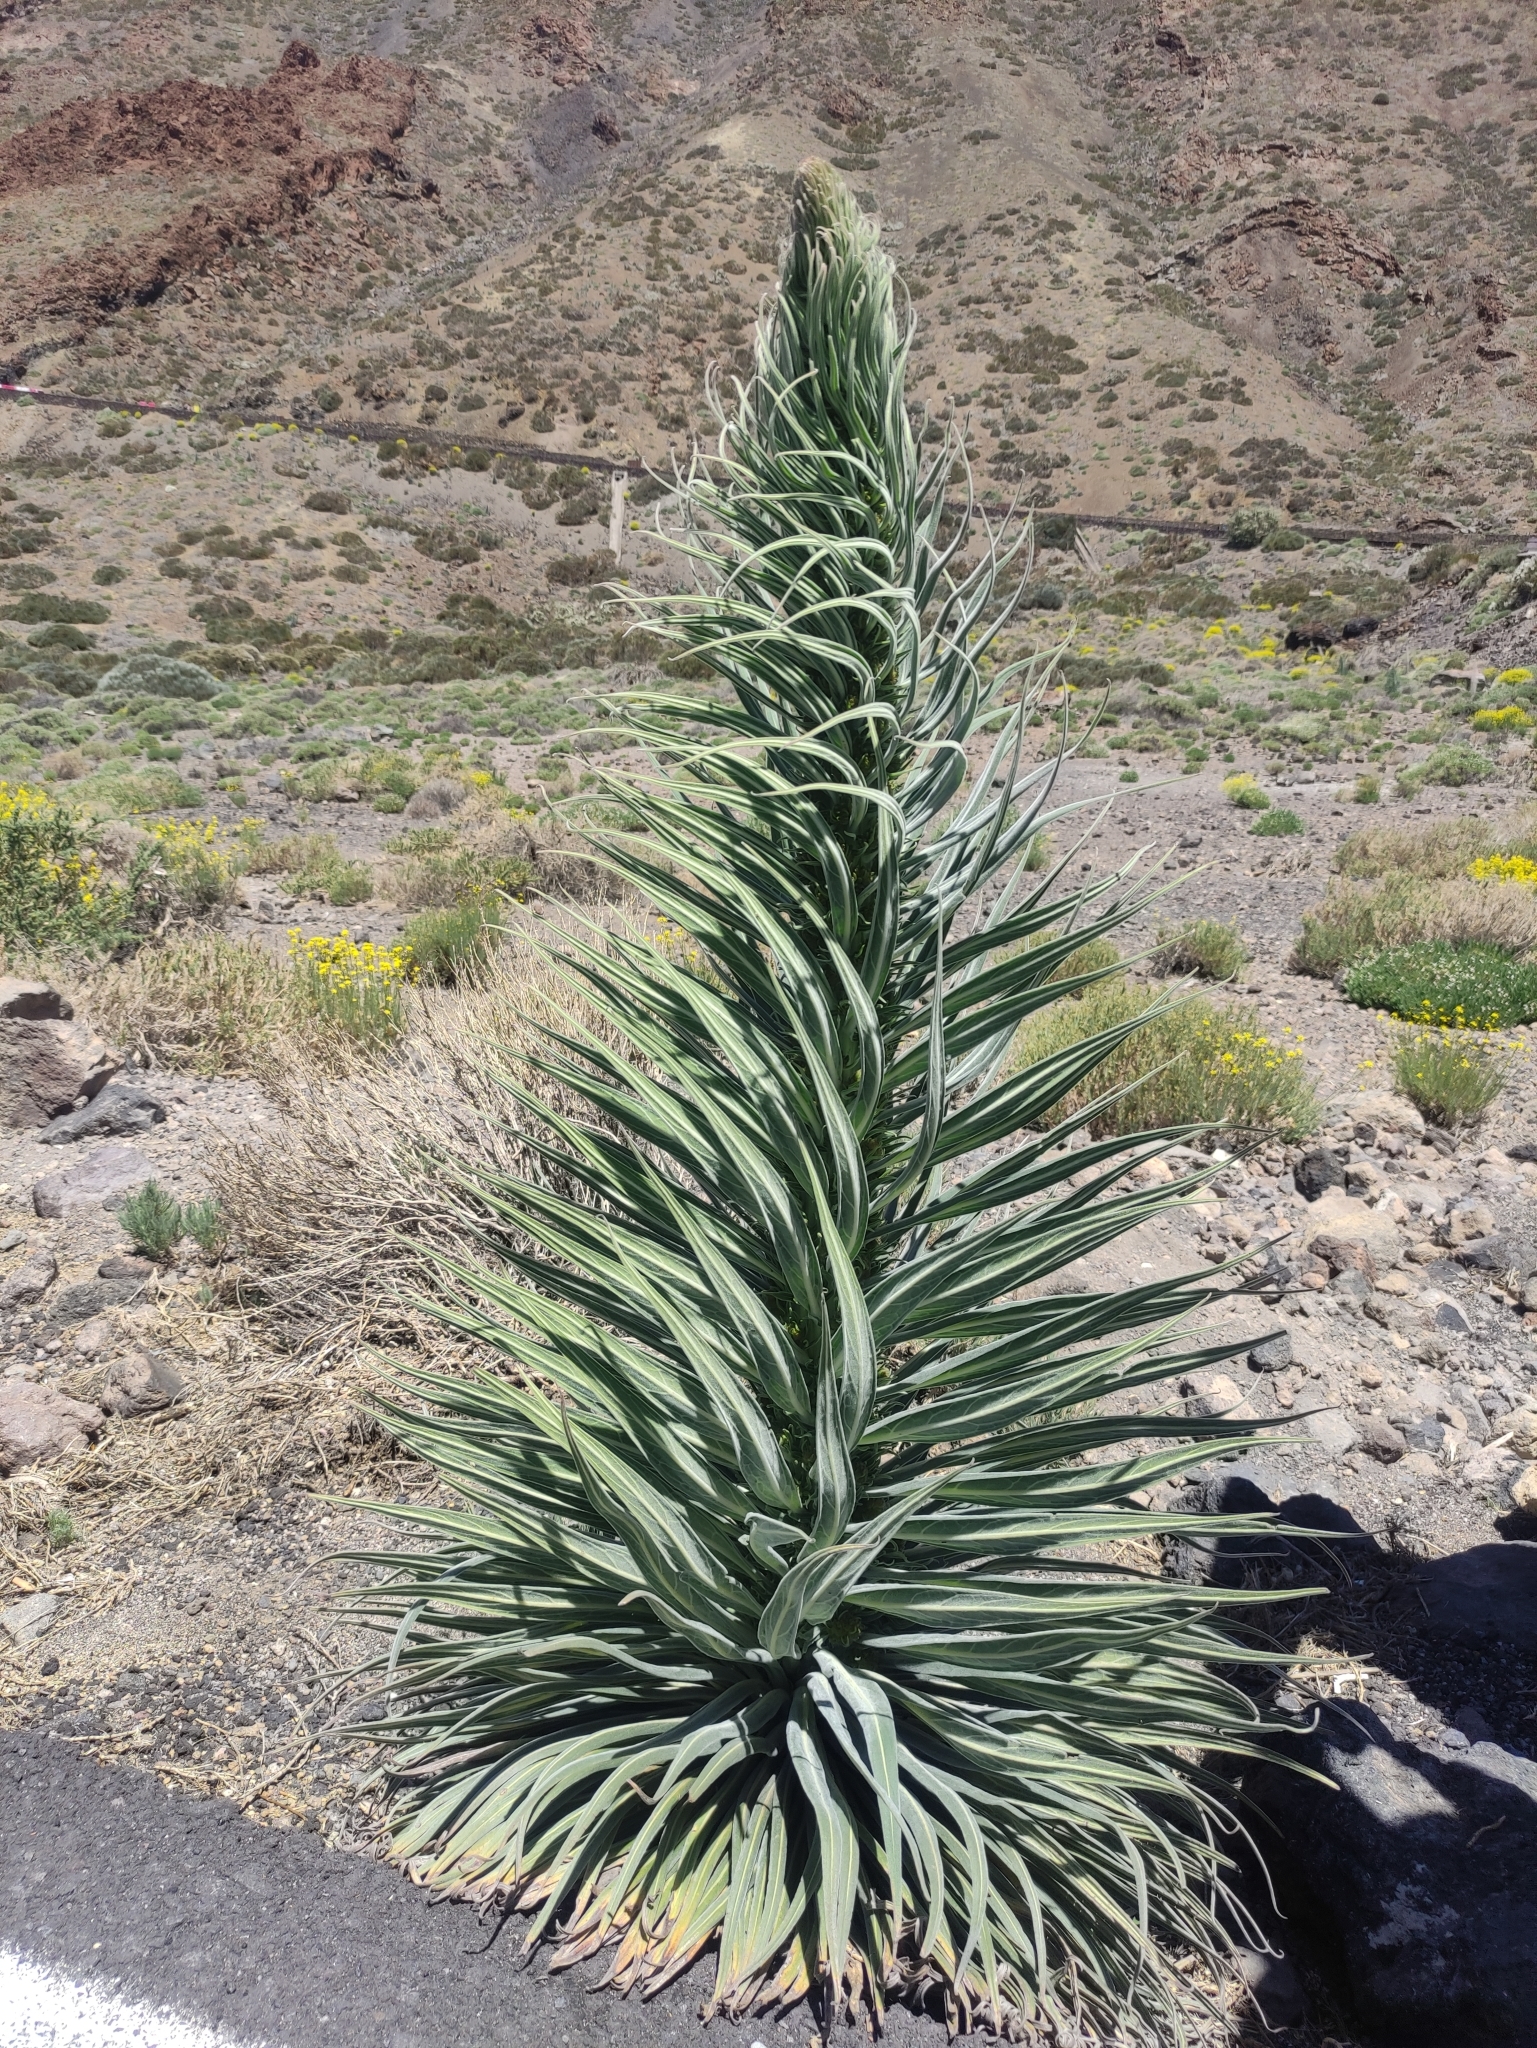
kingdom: Plantae
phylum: Tracheophyta
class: Magnoliopsida
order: Boraginales
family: Boraginaceae
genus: Echium
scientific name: Echium wildpretii
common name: Tower-of-jewels
